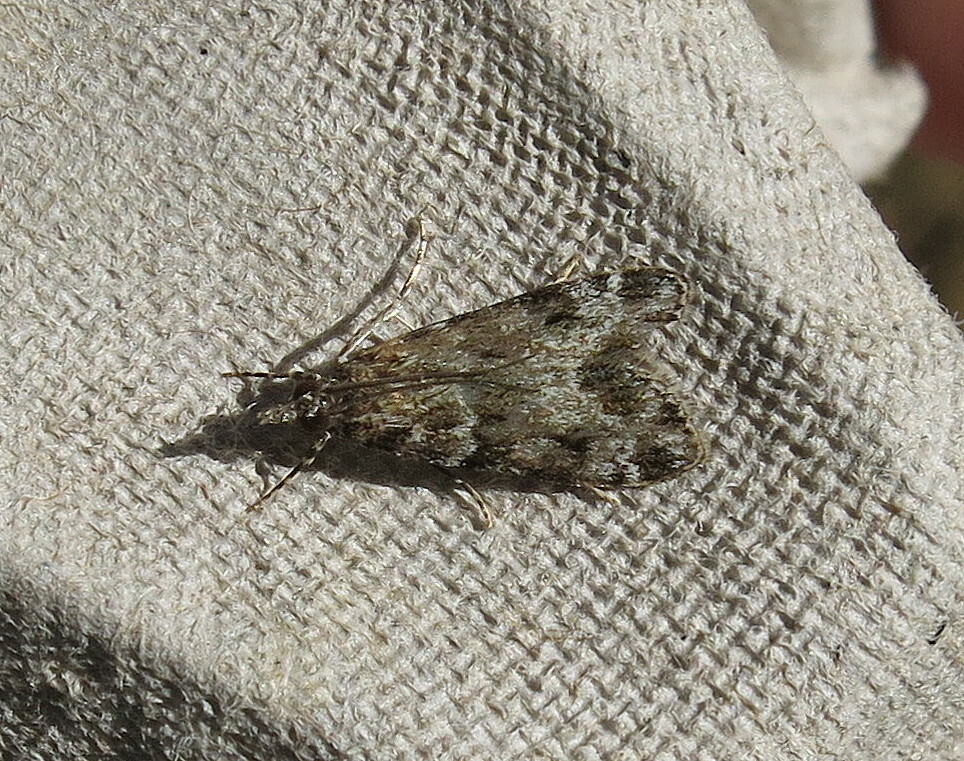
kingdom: Animalia
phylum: Arthropoda
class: Insecta
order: Lepidoptera
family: Crambidae
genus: Eudonia
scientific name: Eudonia mercurella
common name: Small grey
